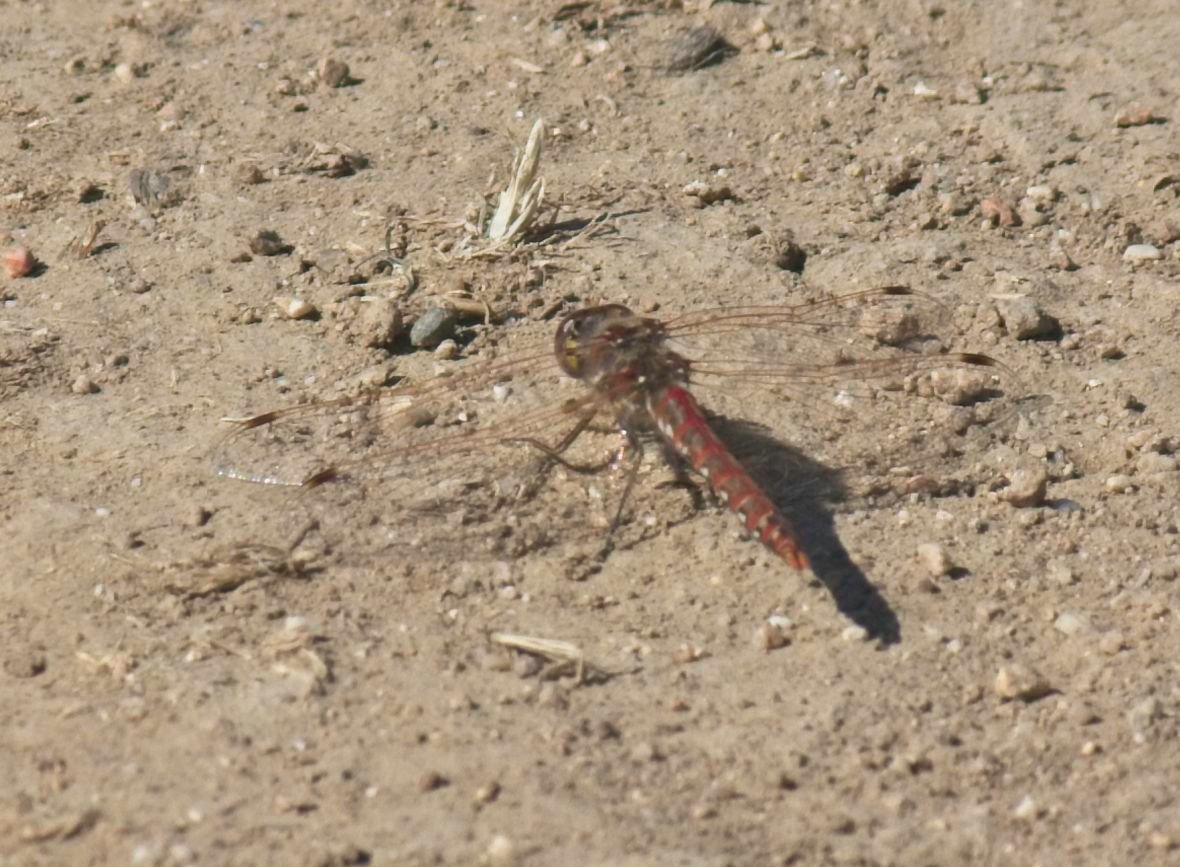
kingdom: Animalia
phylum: Arthropoda
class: Insecta
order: Odonata
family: Libellulidae
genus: Sympetrum
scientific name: Sympetrum corruptum
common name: Variegated meadowhawk
